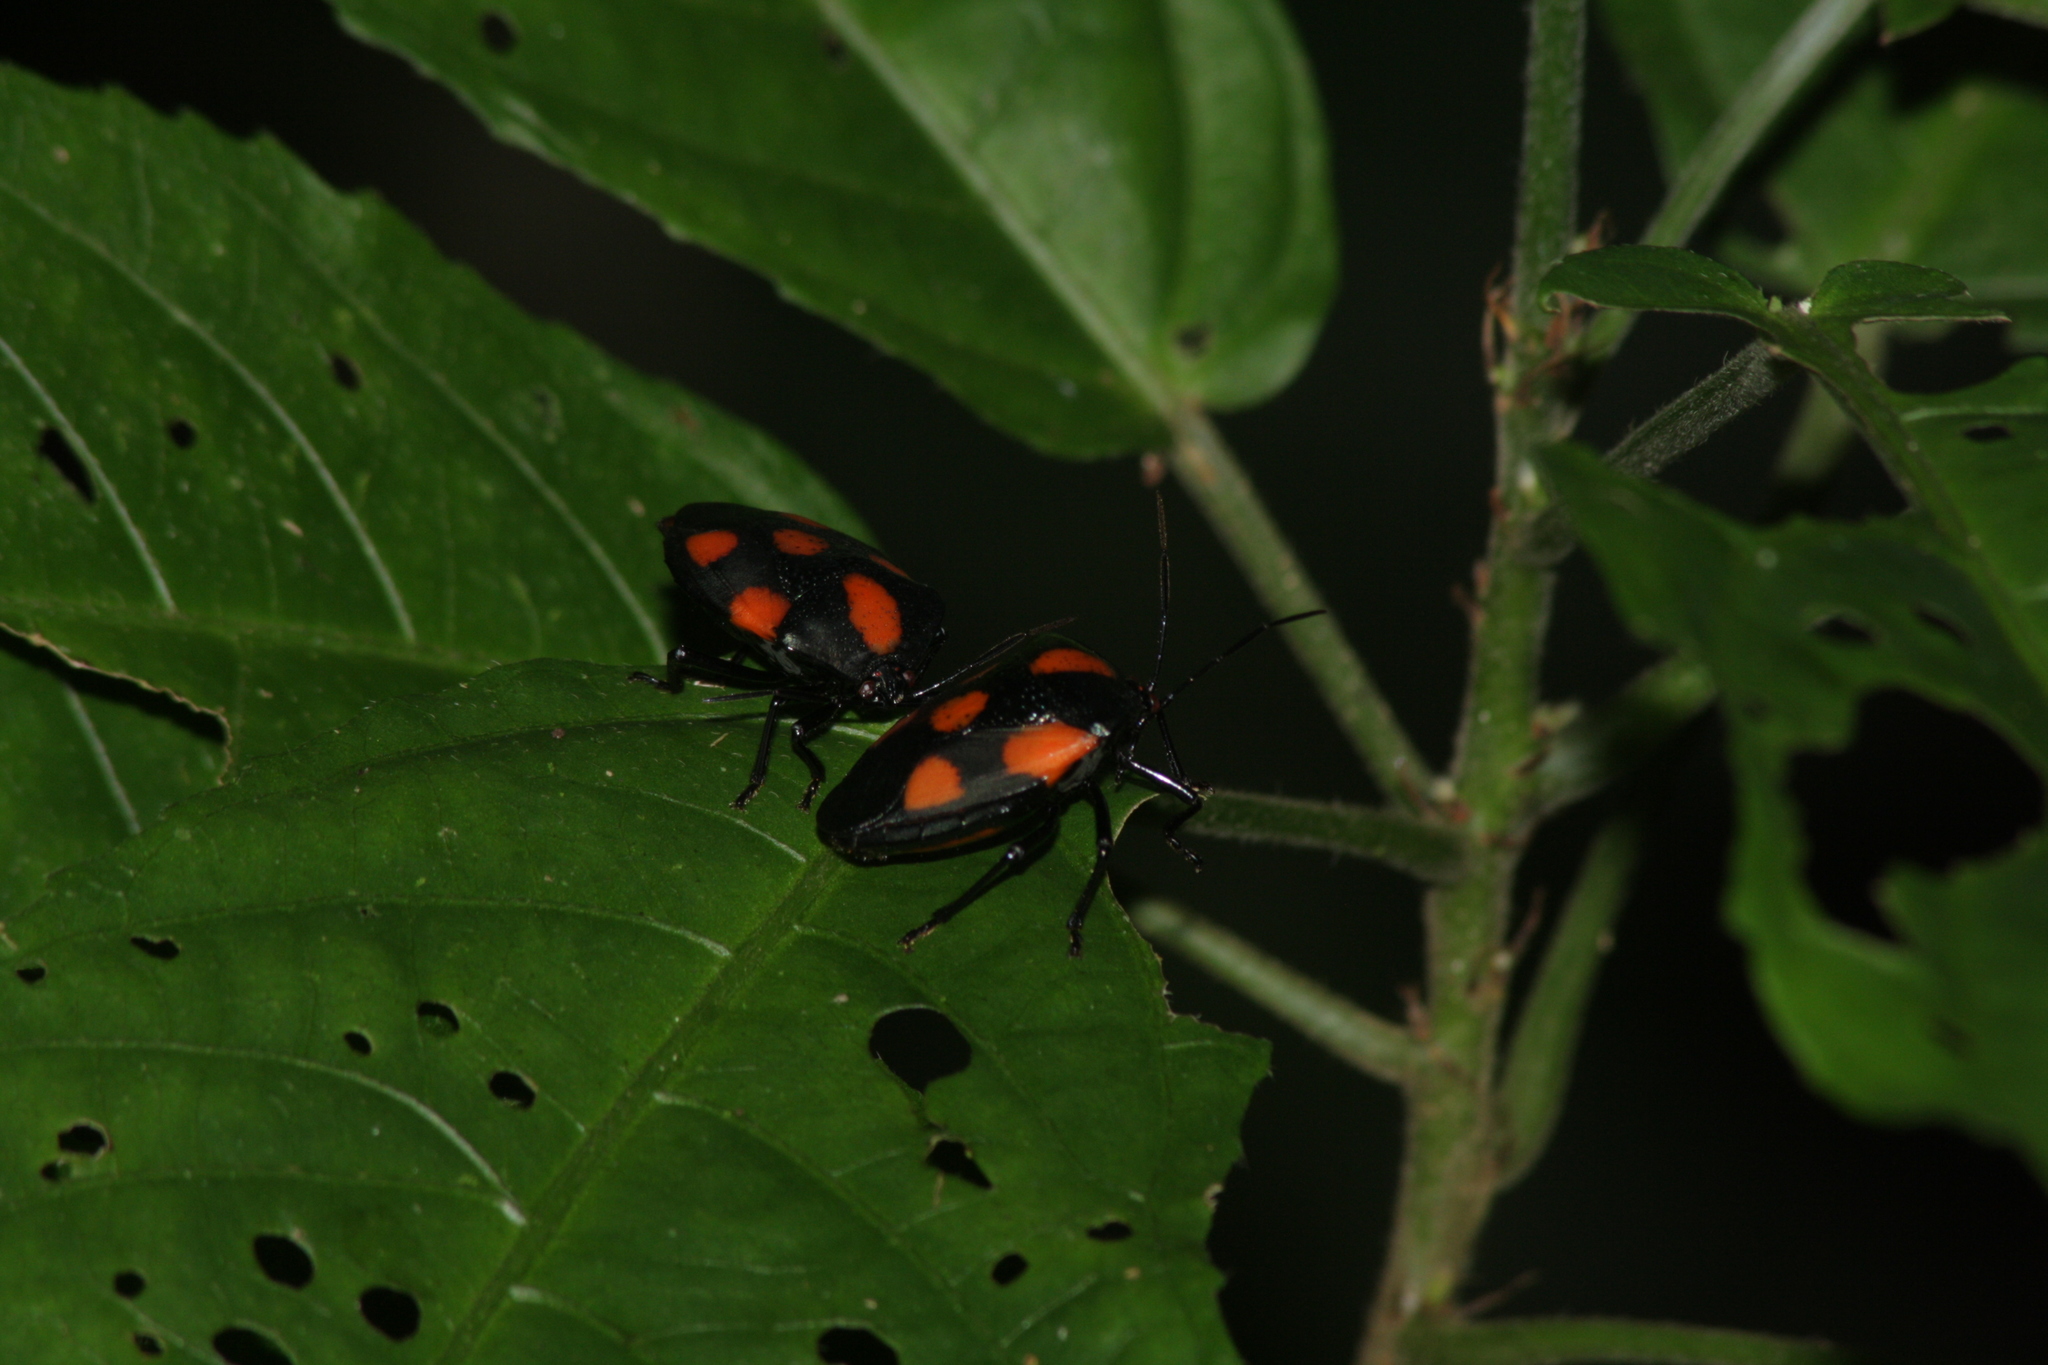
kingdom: Animalia
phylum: Arthropoda
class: Insecta
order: Hemiptera
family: Pentatomidae
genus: Brachystethus
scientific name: Brachystethus rubromaculatus
